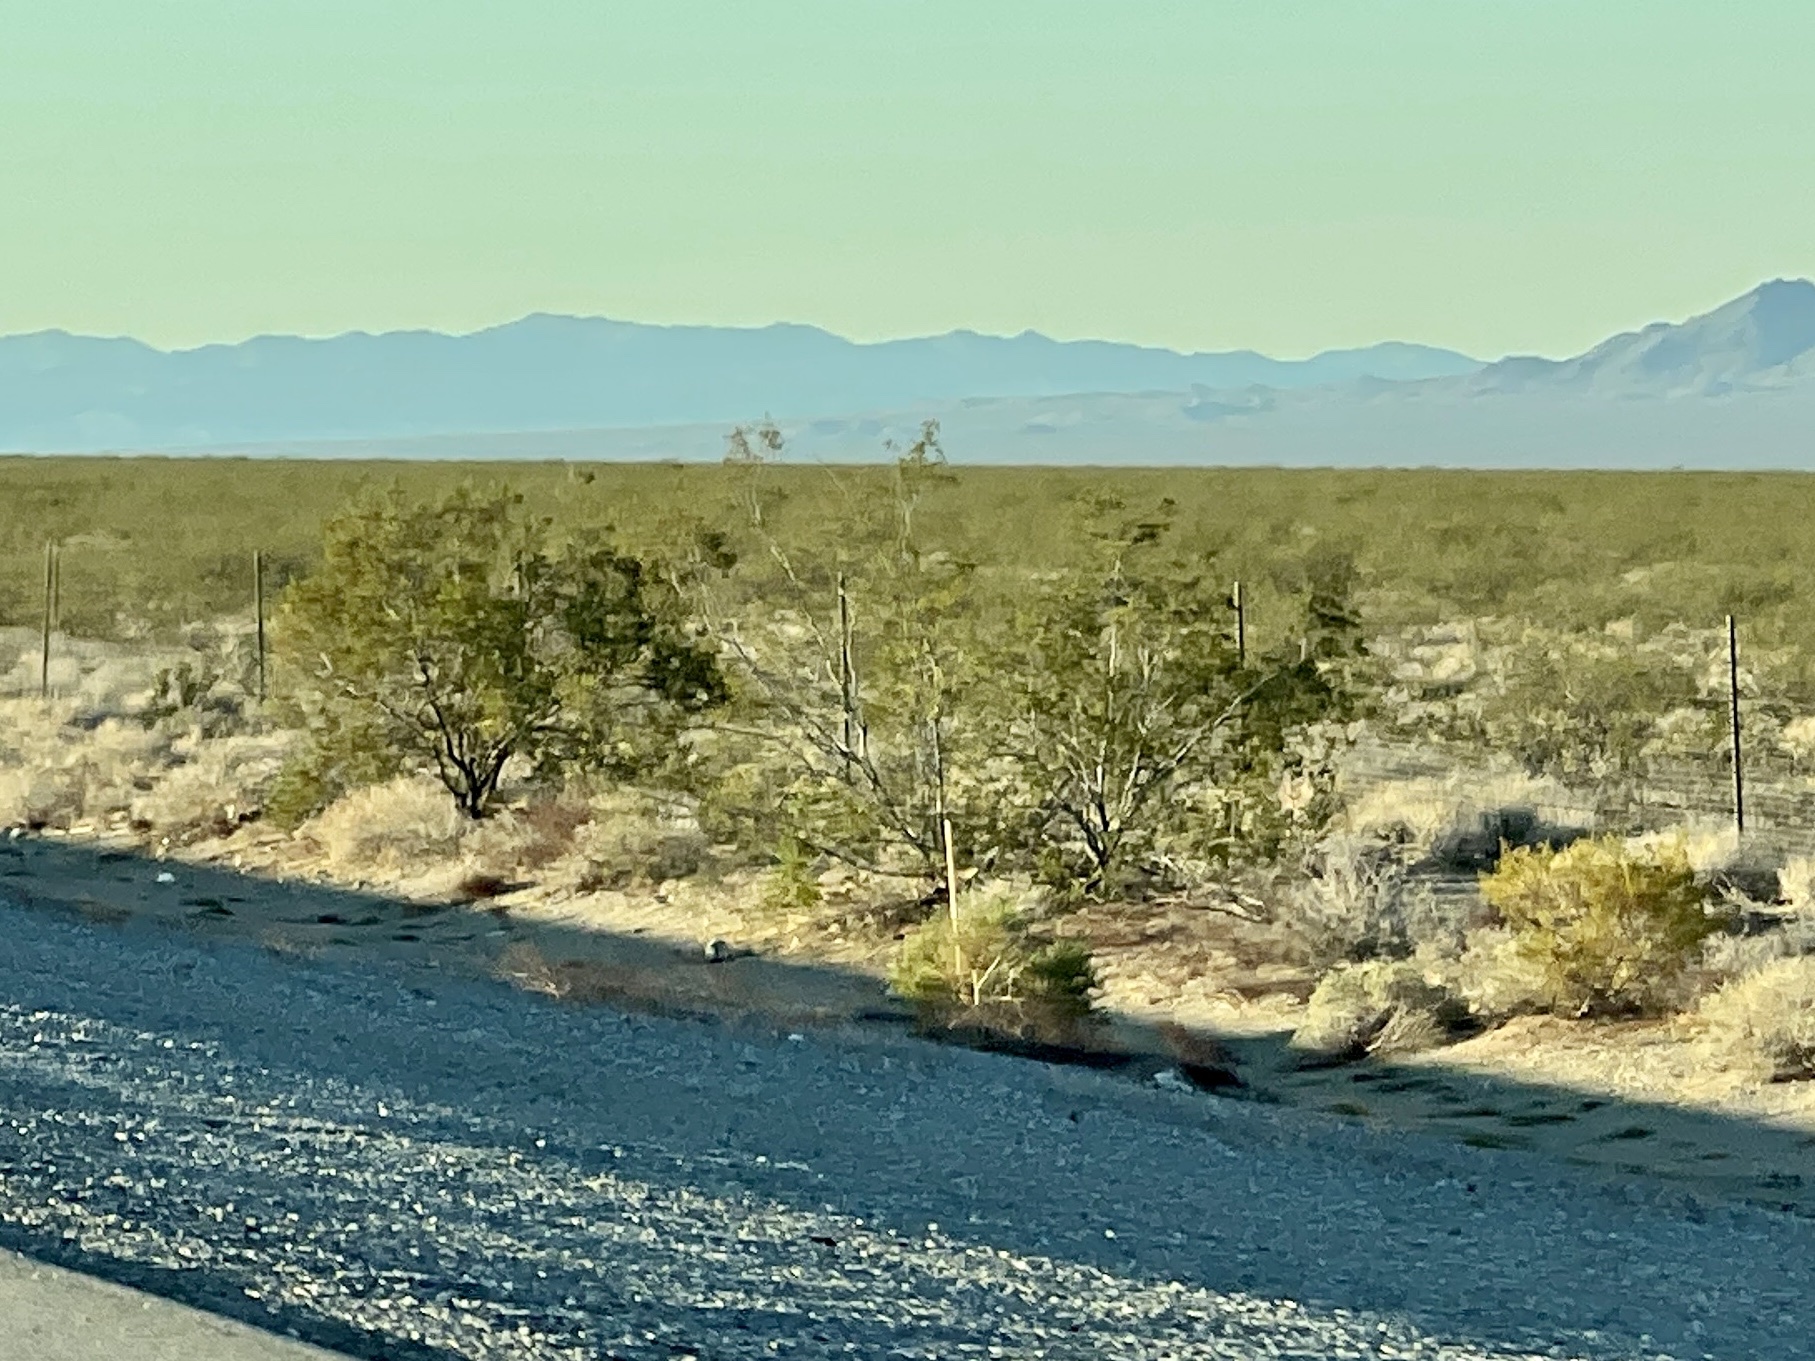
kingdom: Plantae
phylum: Tracheophyta
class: Magnoliopsida
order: Zygophyllales
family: Zygophyllaceae
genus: Larrea
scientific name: Larrea tridentata
